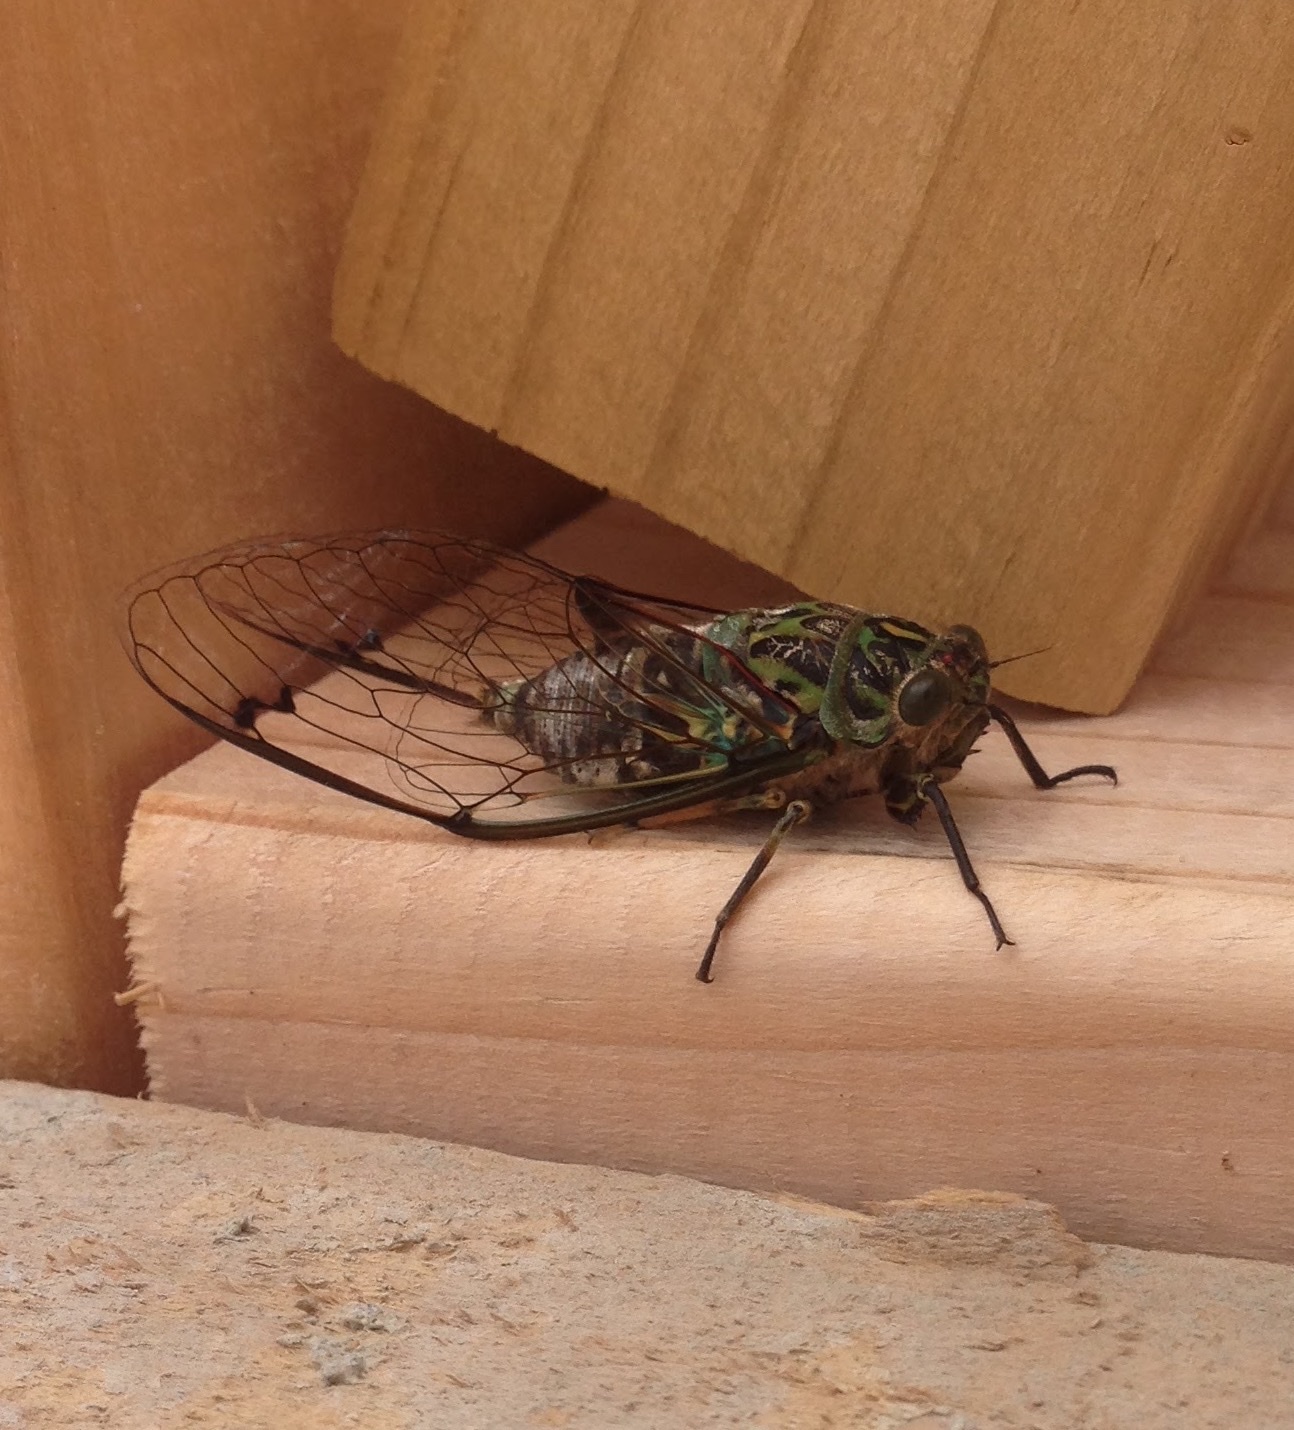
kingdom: Animalia
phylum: Arthropoda
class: Insecta
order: Hemiptera
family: Cicadidae
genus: Amphipsalta
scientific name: Amphipsalta zelandica
